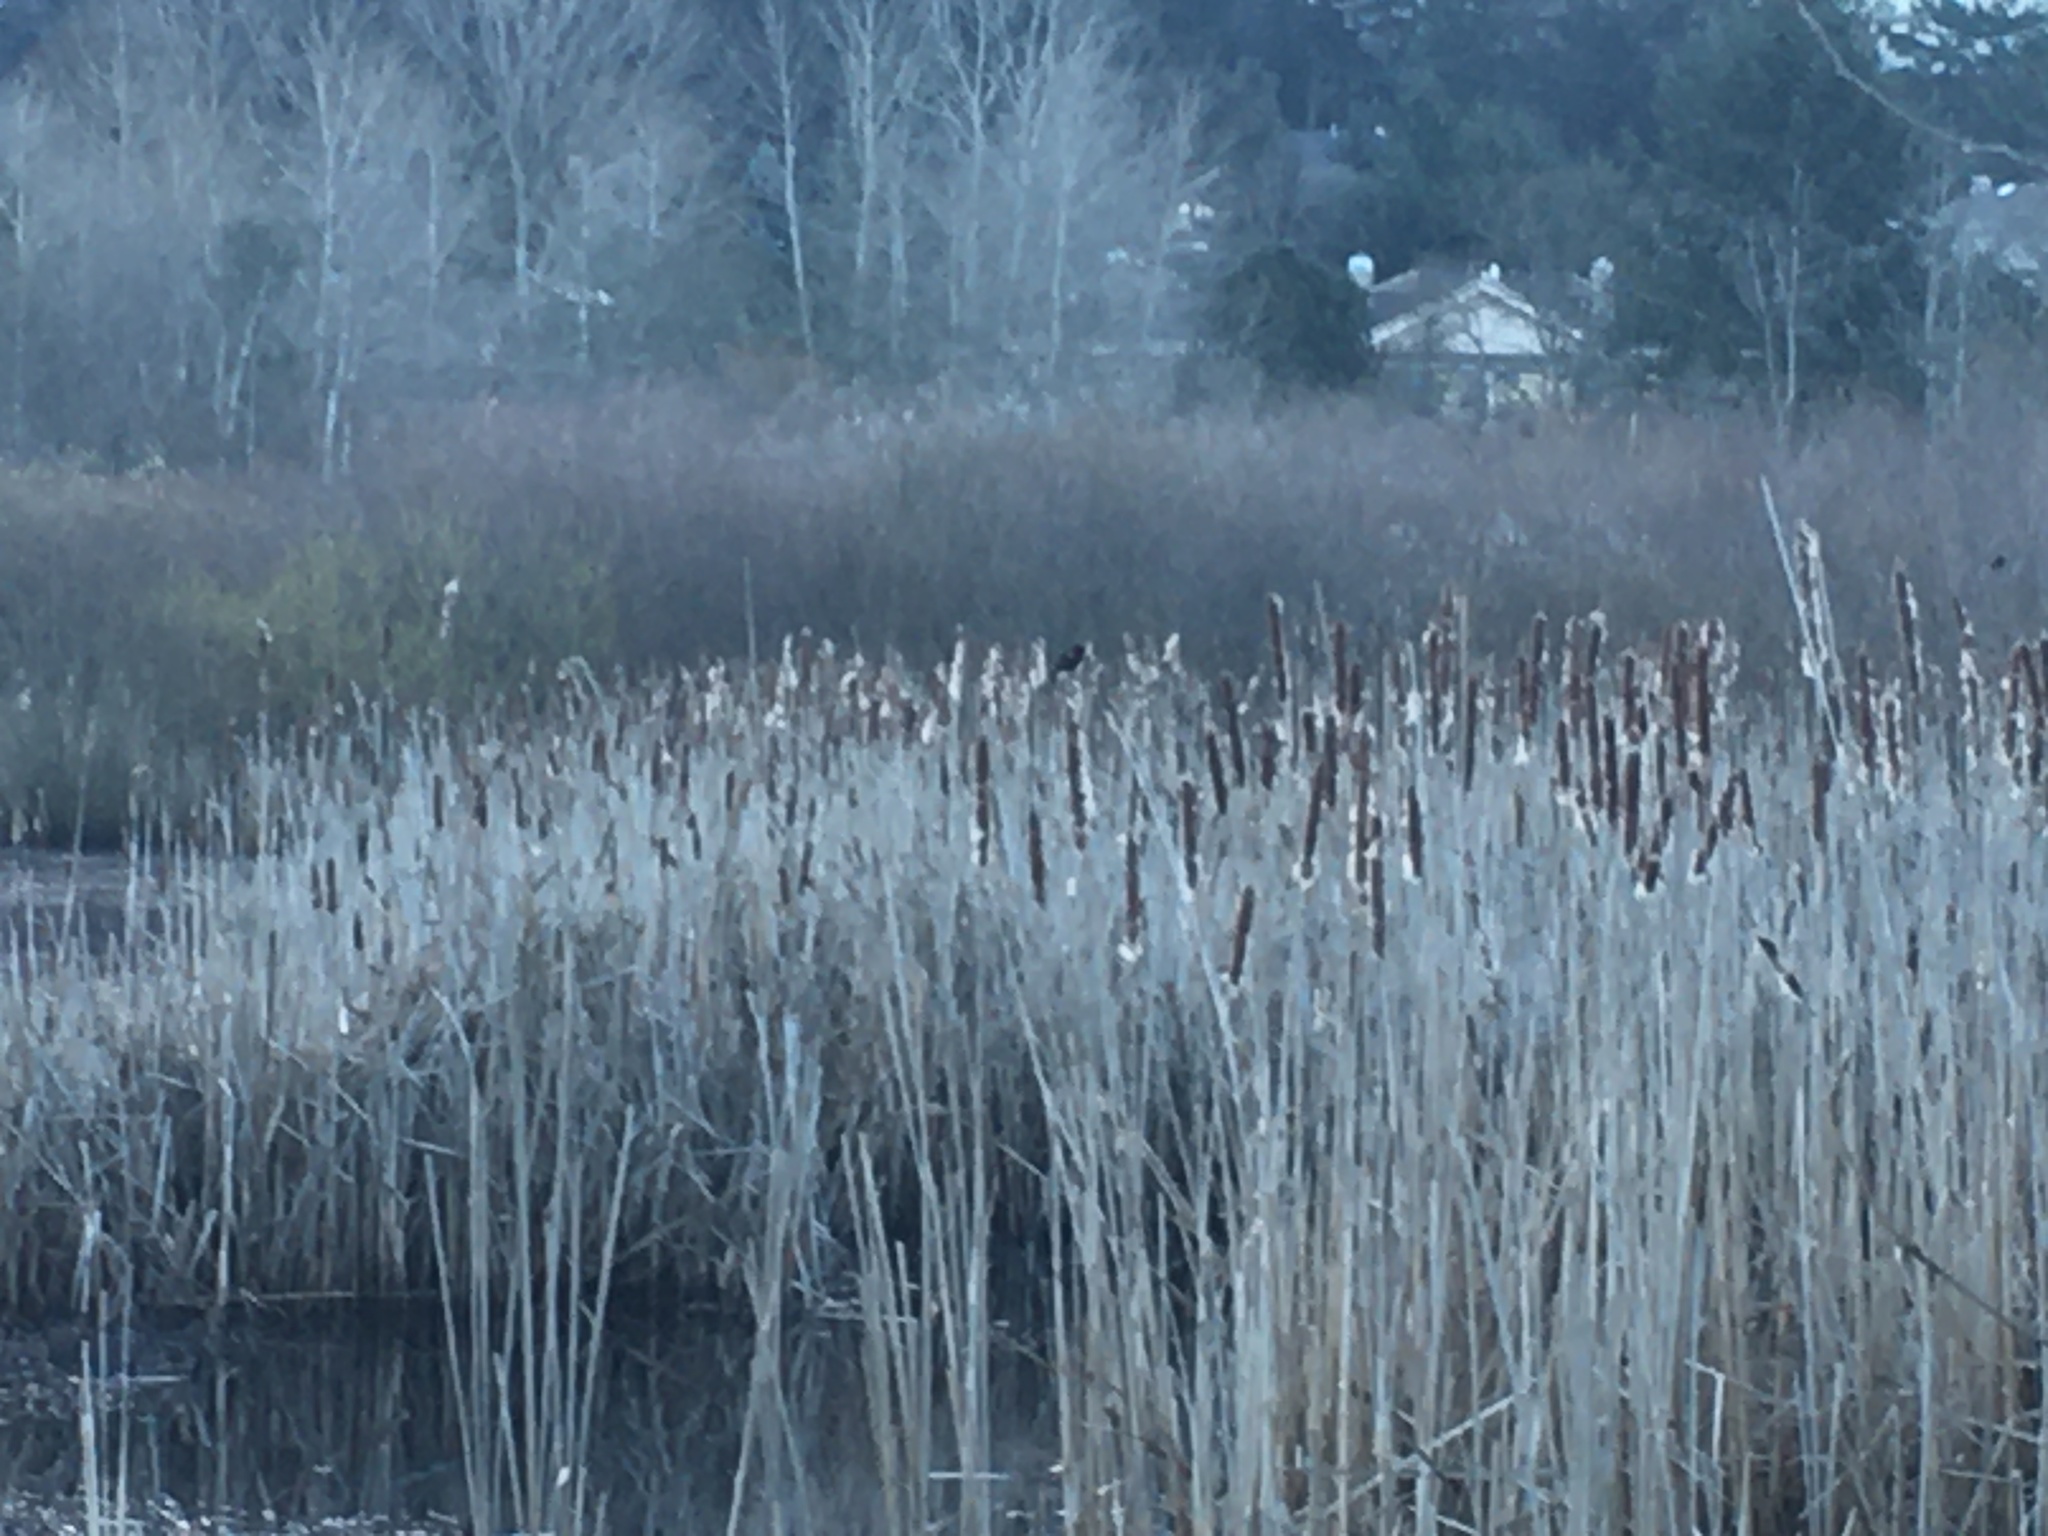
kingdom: Animalia
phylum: Chordata
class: Aves
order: Passeriformes
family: Icteridae
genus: Agelaius
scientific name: Agelaius phoeniceus
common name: Red-winged blackbird
